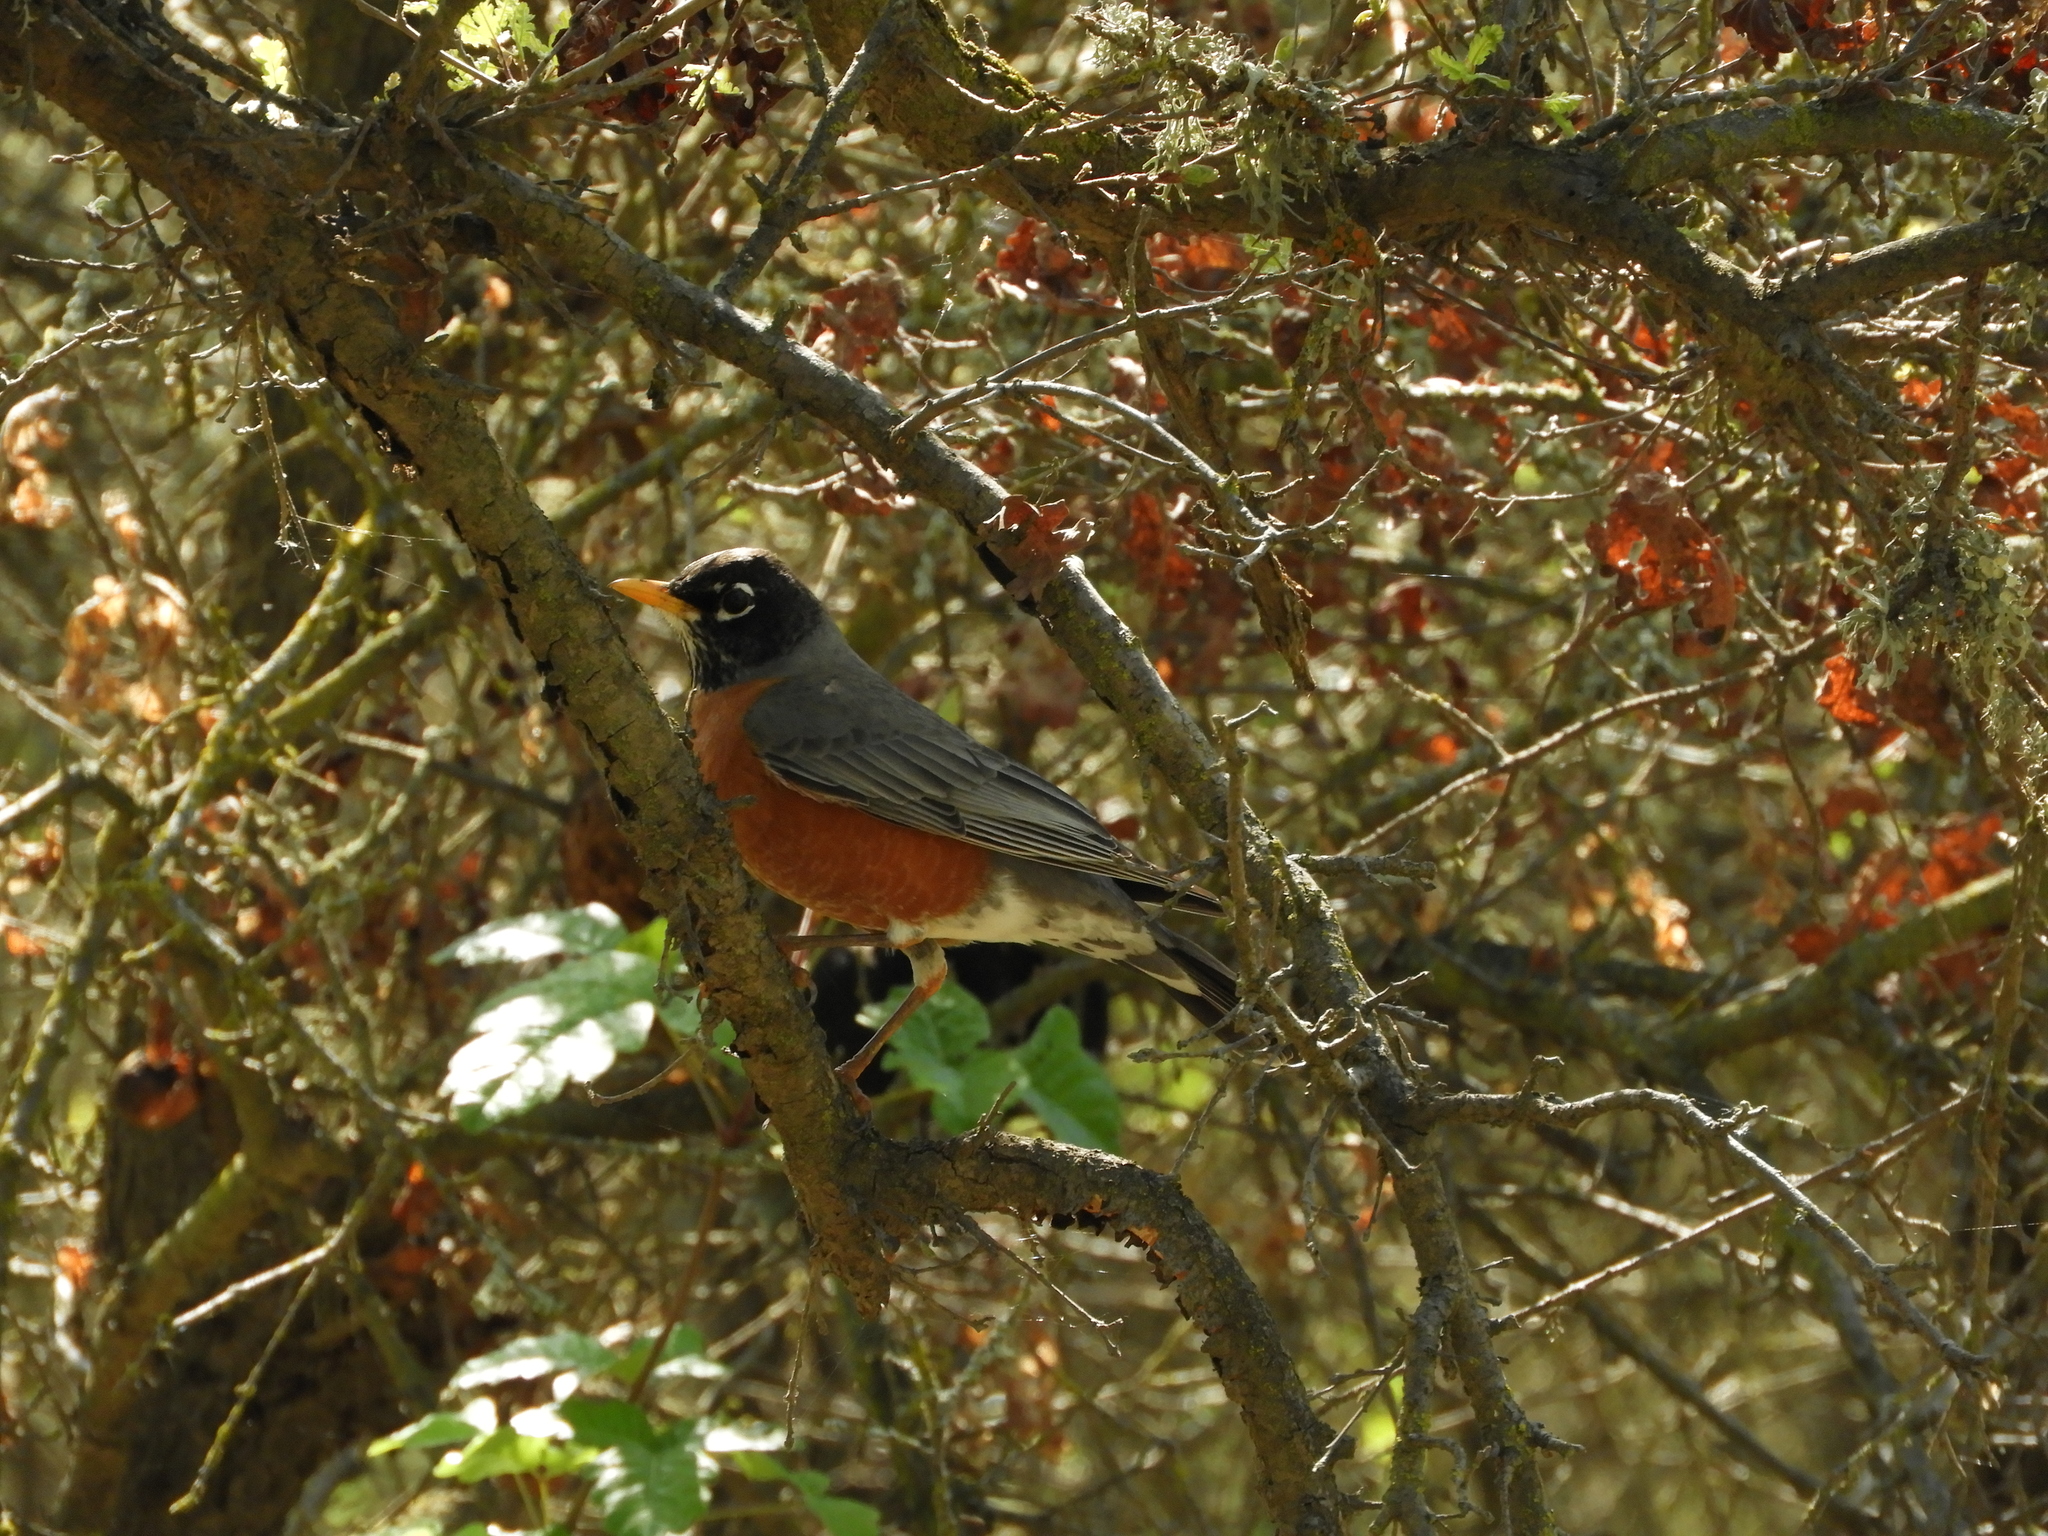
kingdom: Animalia
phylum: Chordata
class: Aves
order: Passeriformes
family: Turdidae
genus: Turdus
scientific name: Turdus migratorius
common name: American robin
